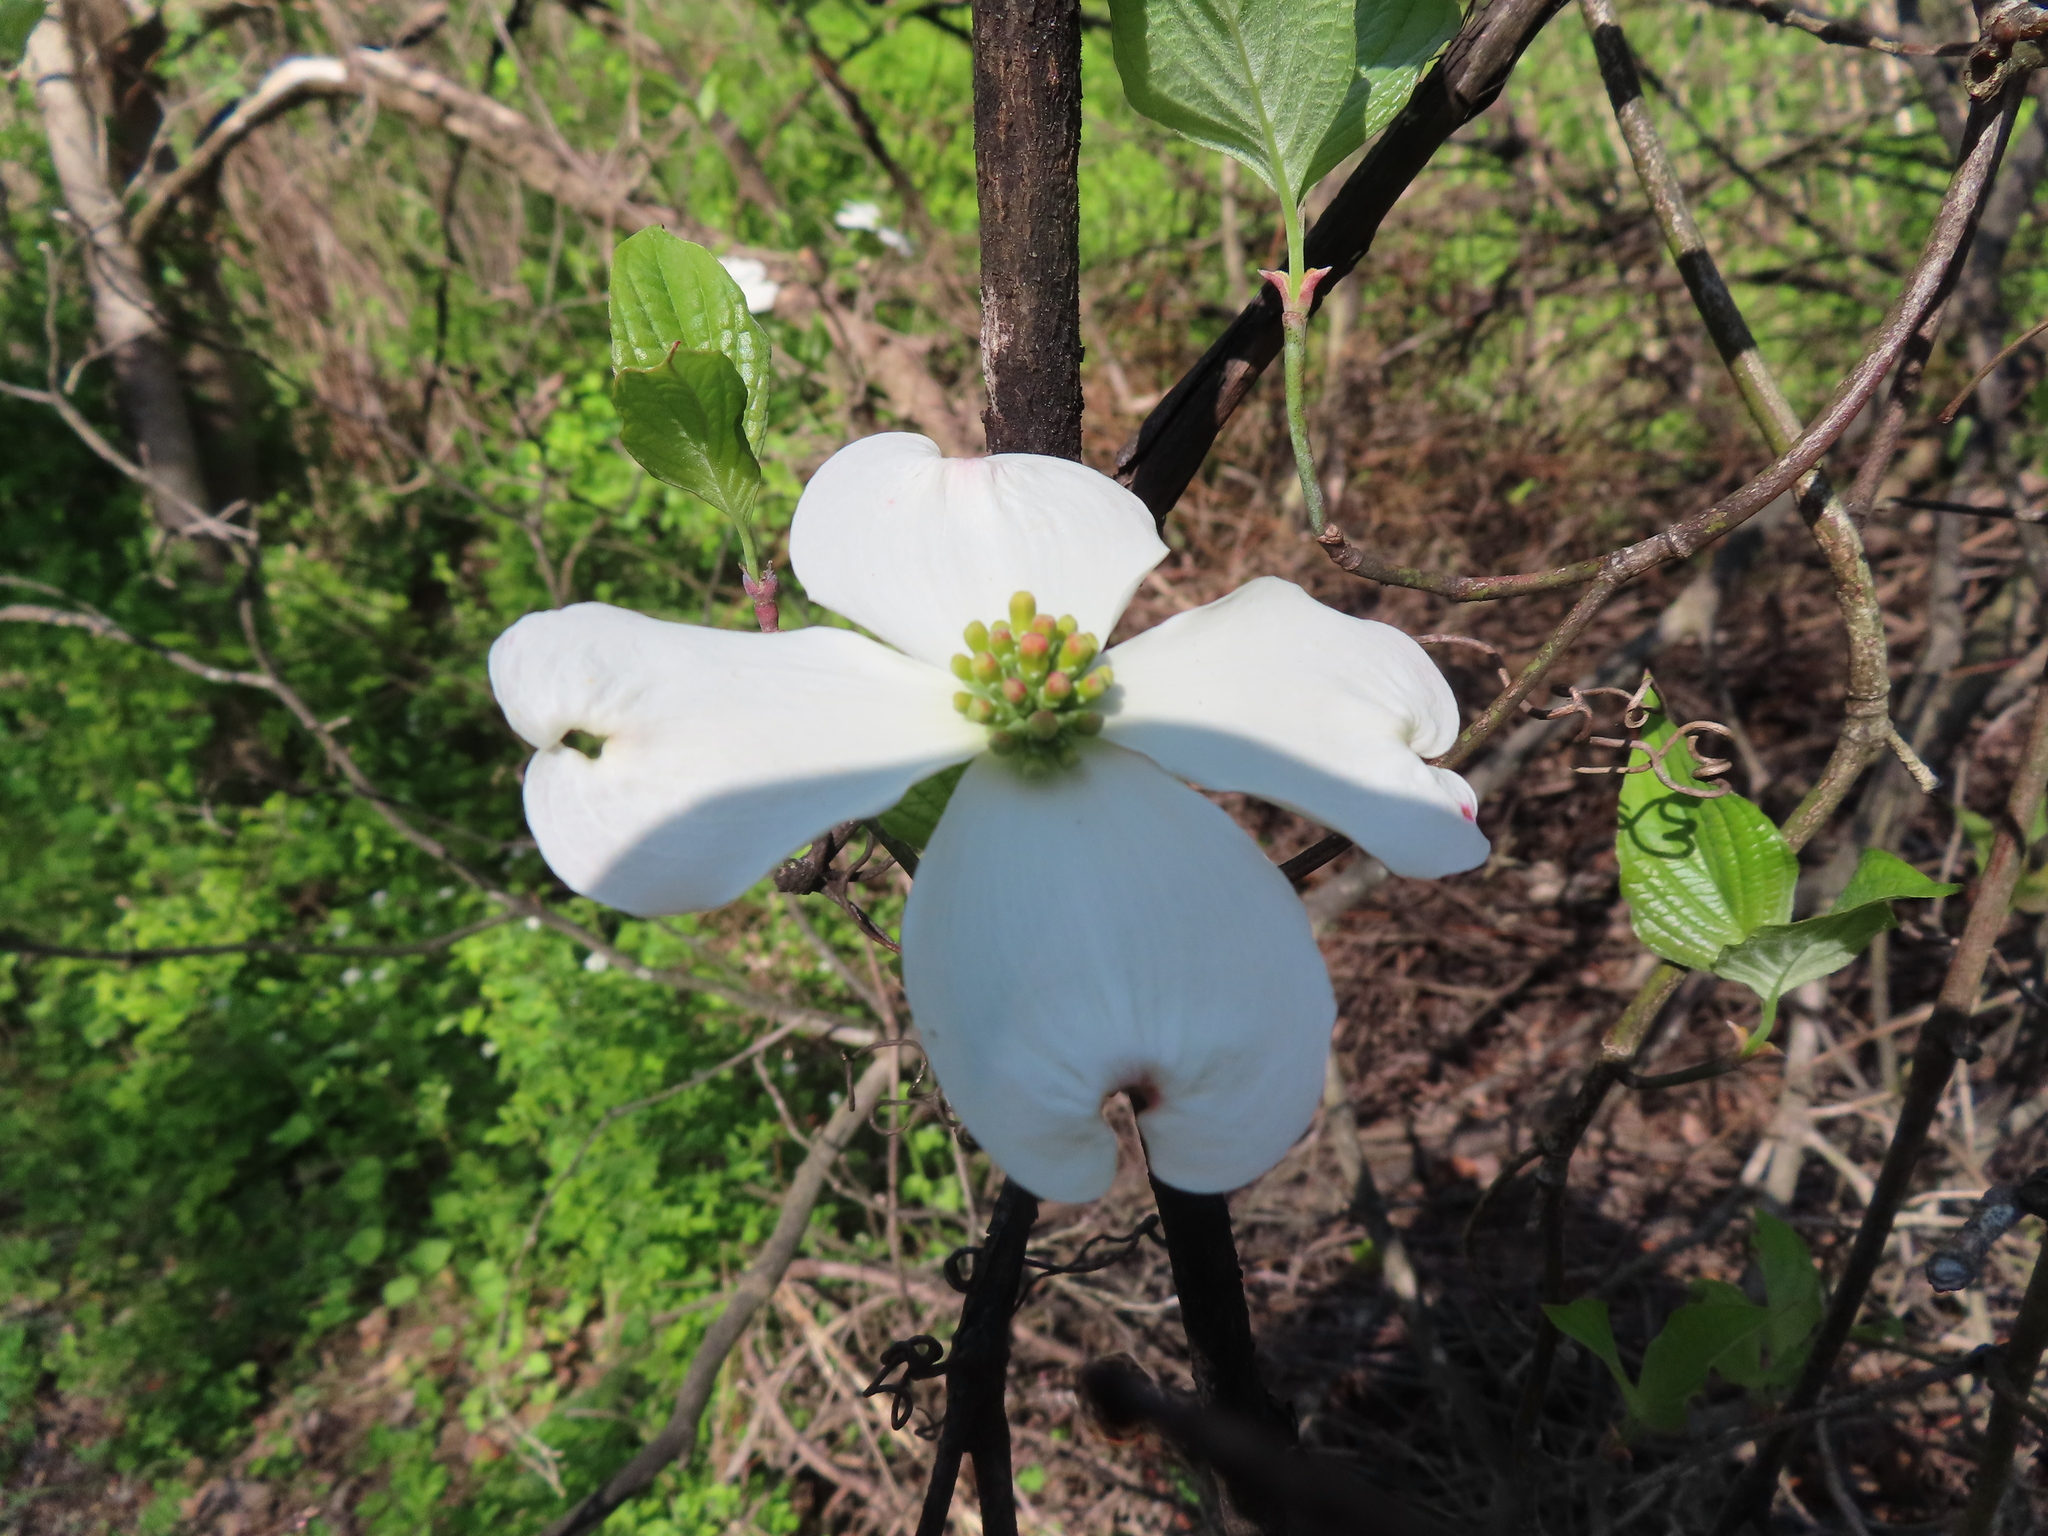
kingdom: Plantae
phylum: Tracheophyta
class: Magnoliopsida
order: Cornales
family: Cornaceae
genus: Cornus
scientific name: Cornus florida
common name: Flowering dogwood
